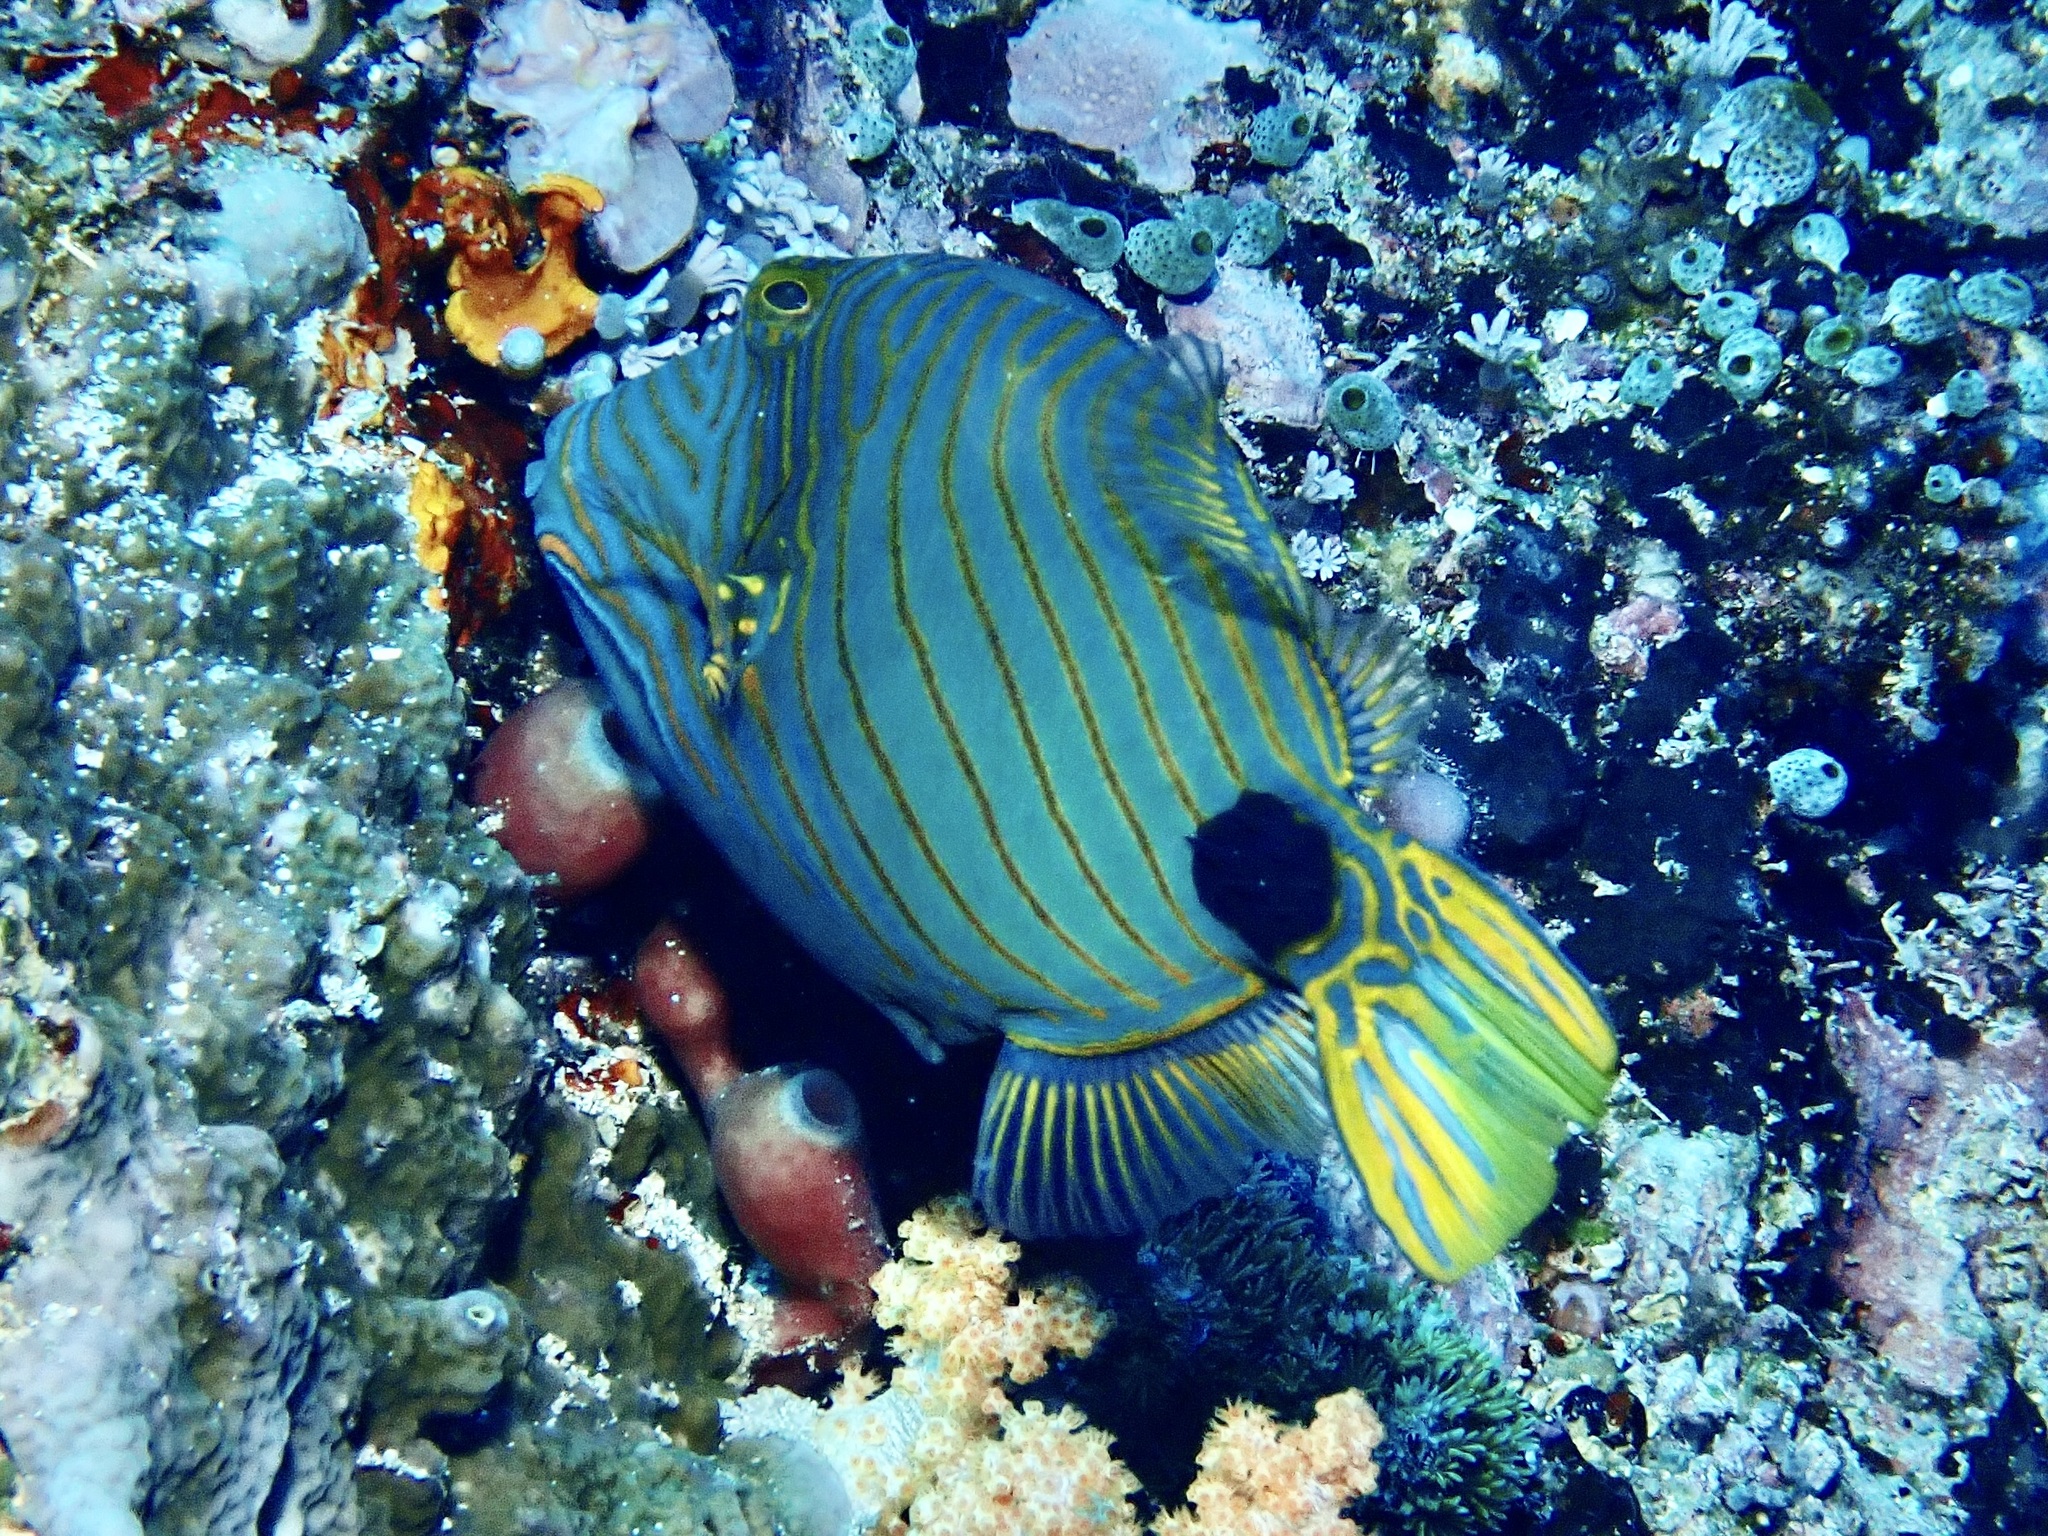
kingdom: Animalia
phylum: Chordata
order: Tetraodontiformes
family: Balistidae
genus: Balistapus
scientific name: Balistapus undulatus
